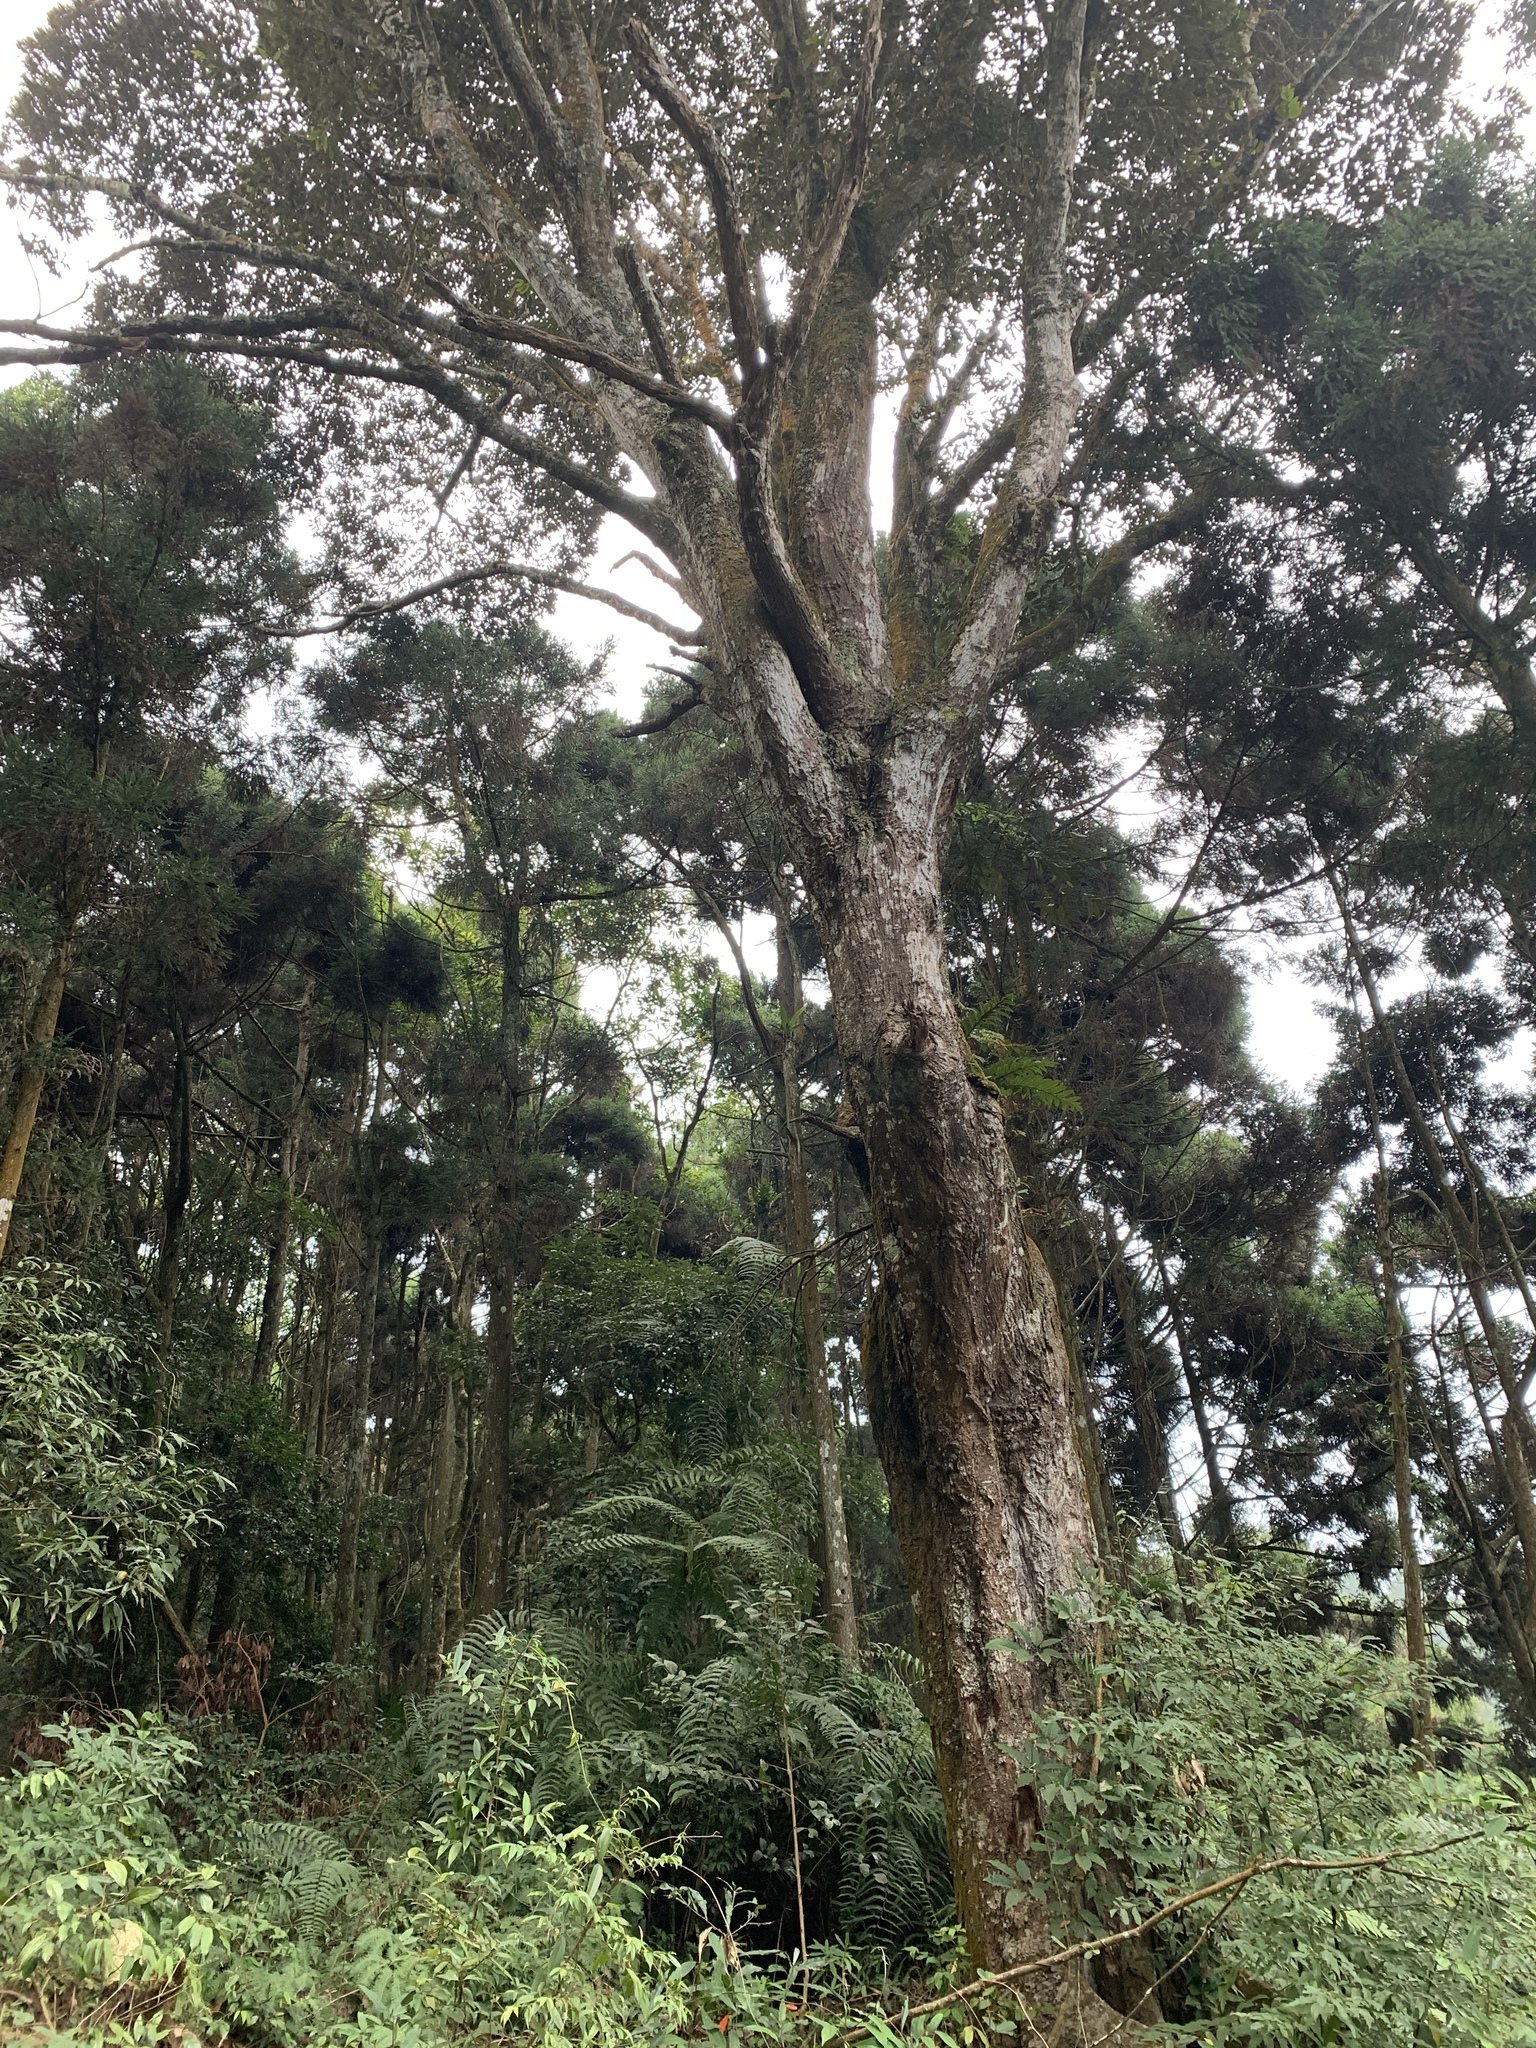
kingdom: Plantae
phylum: Tracheophyta
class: Magnoliopsida
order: Fagales
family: Fagaceae
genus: Castanopsis
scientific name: Castanopsis fargesii
